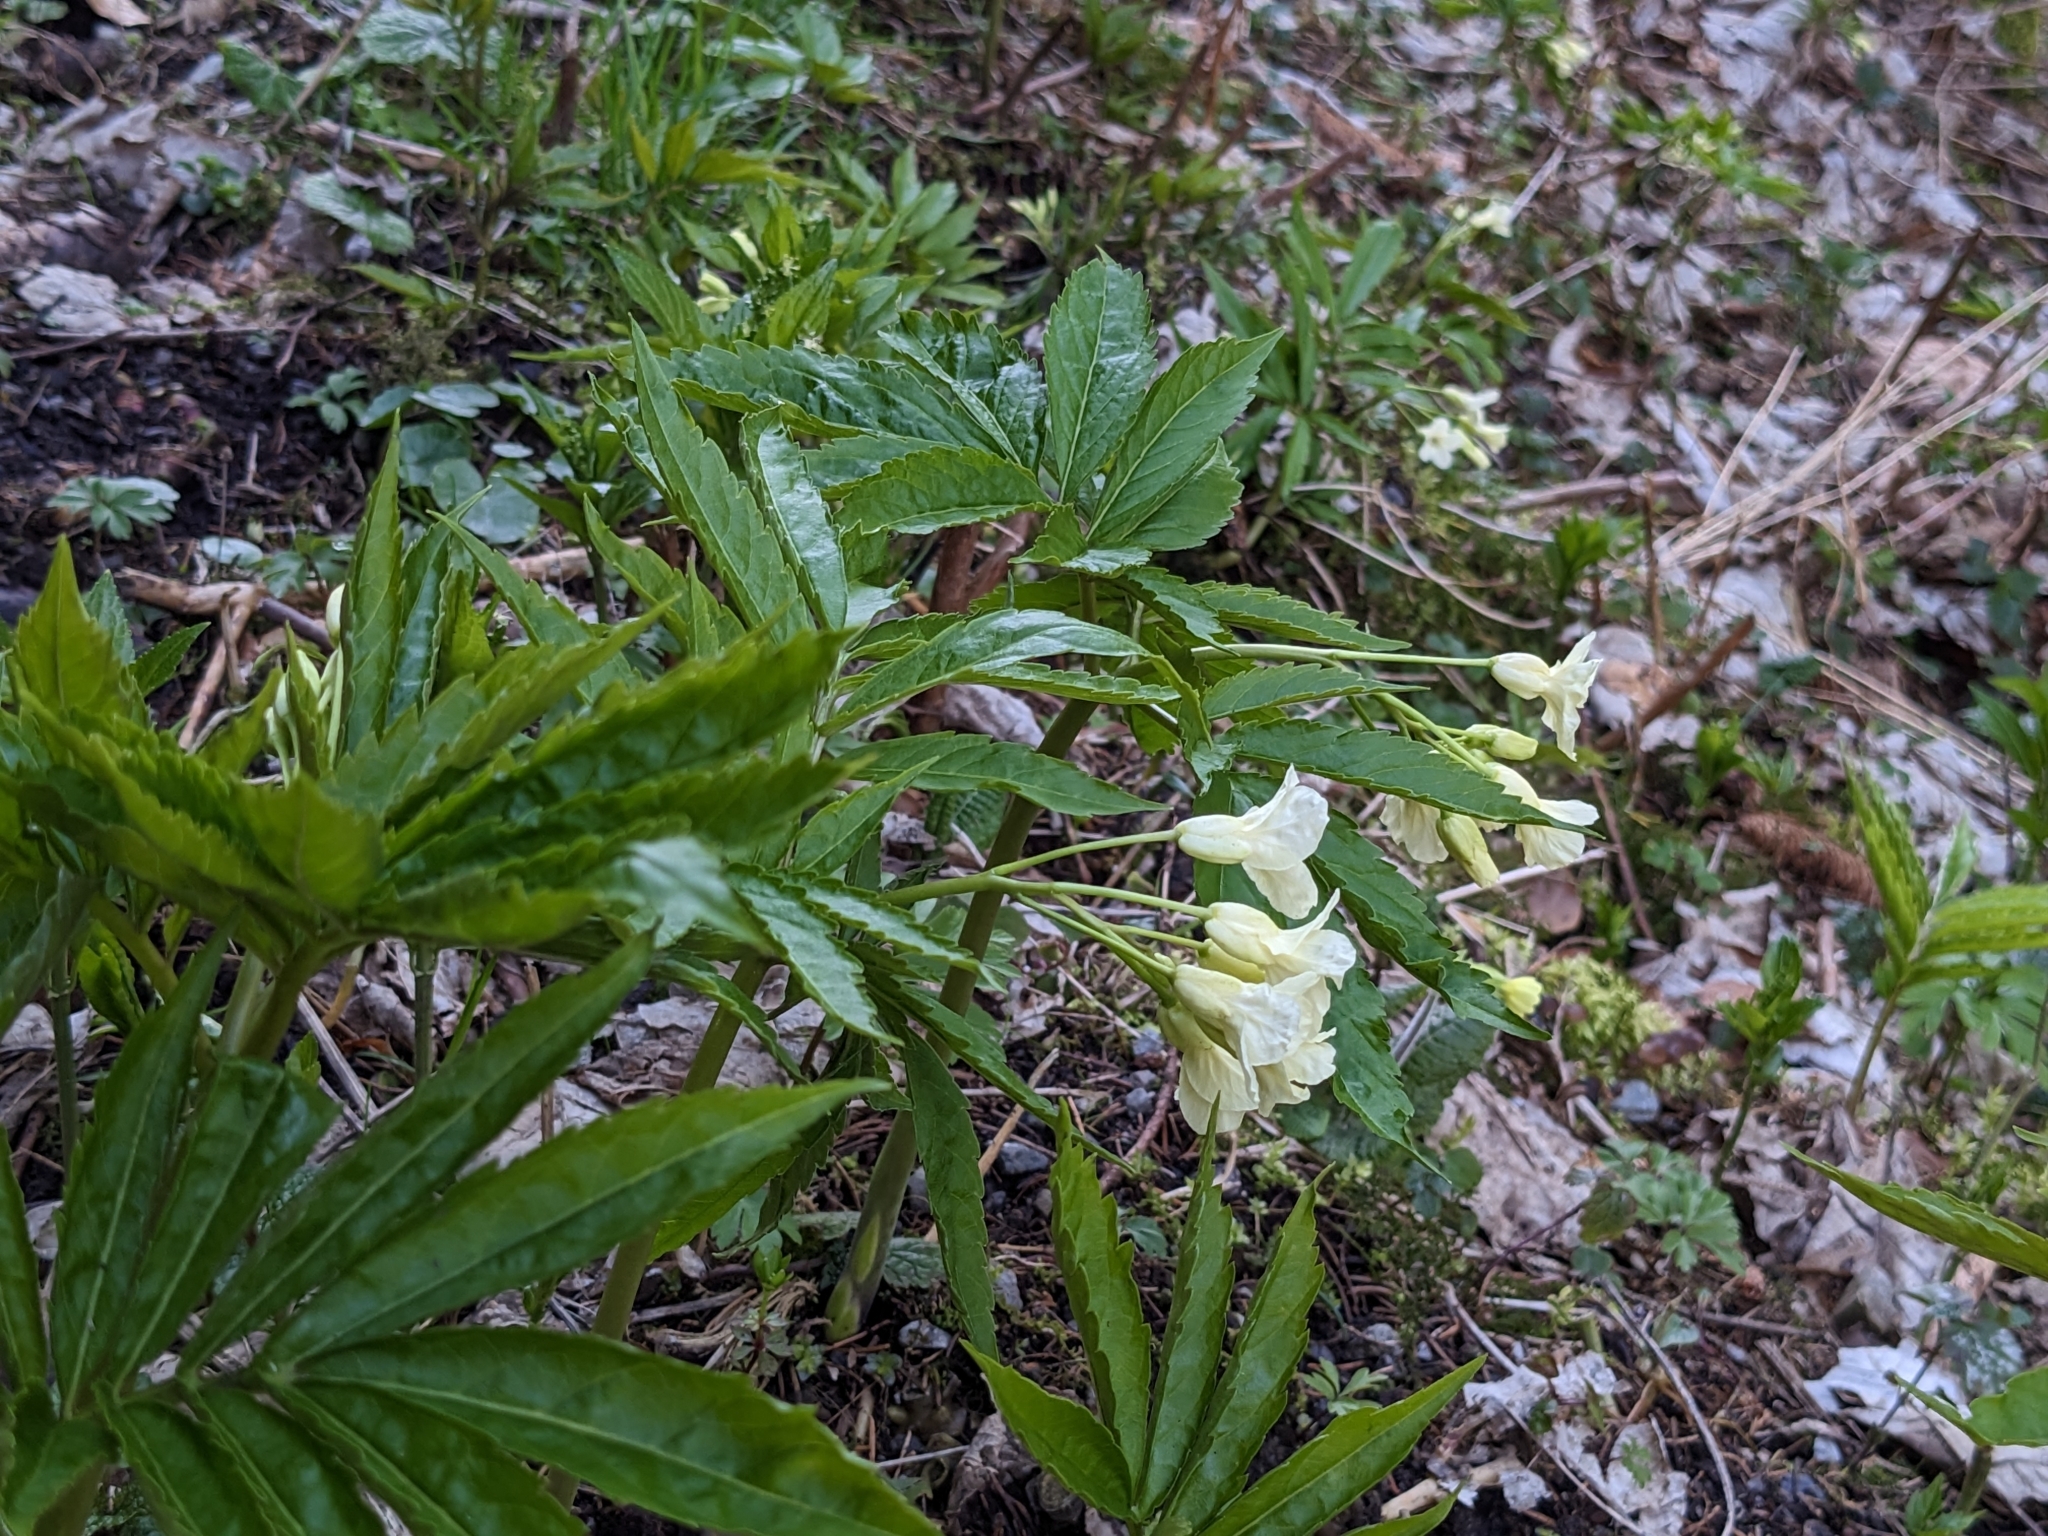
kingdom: Plantae
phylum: Tracheophyta
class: Magnoliopsida
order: Brassicales
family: Brassicaceae
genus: Cardamine
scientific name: Cardamine kitaibelii
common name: Kitaibel's bitter-cress
